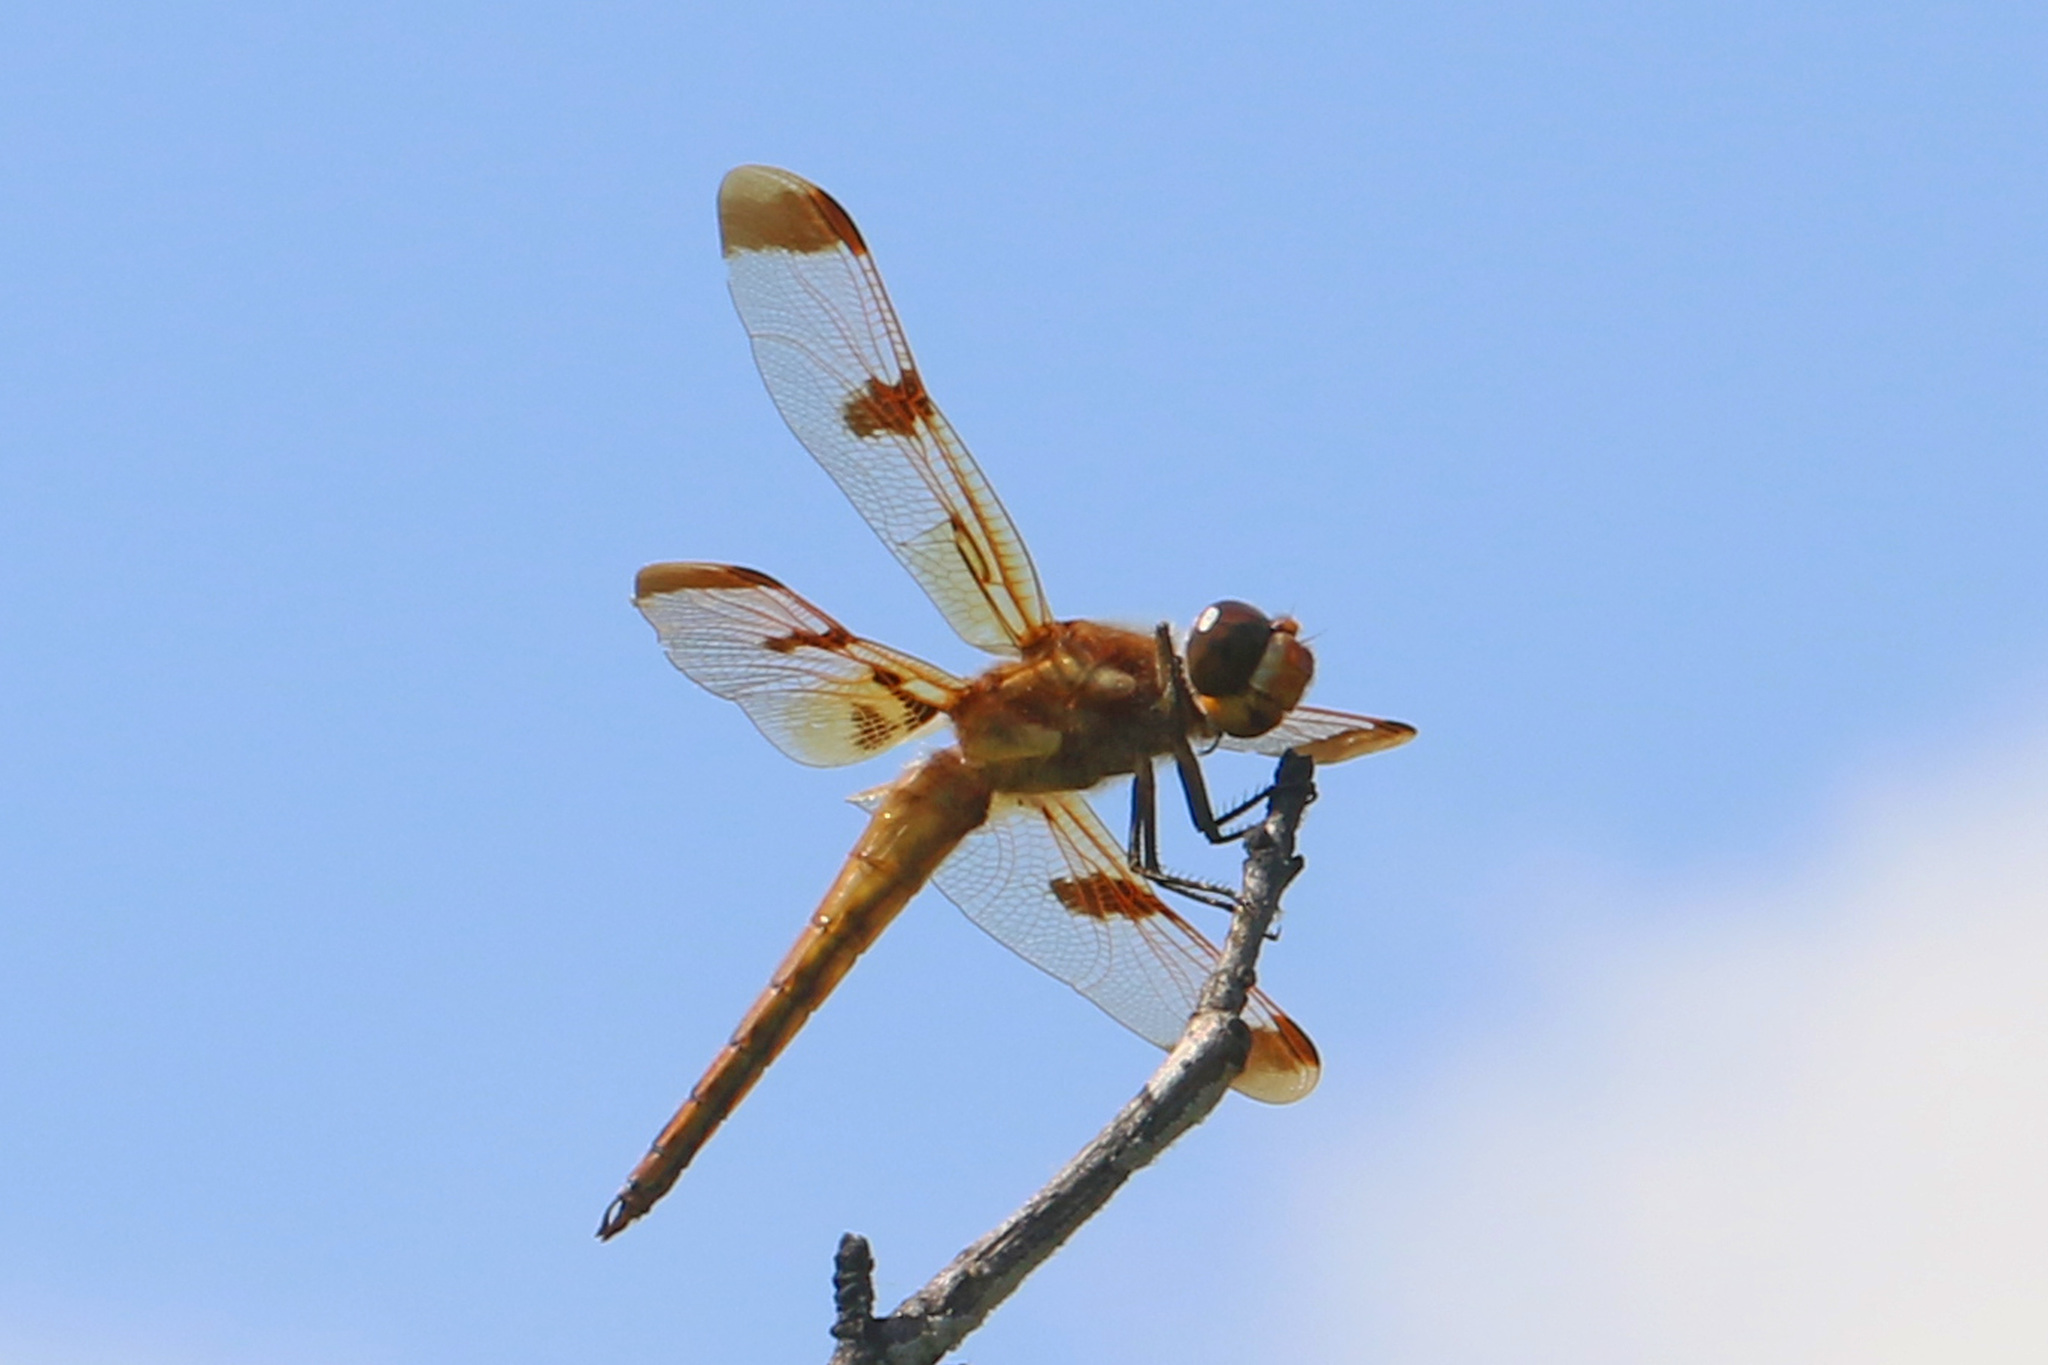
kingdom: Animalia
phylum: Arthropoda
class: Insecta
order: Odonata
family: Libellulidae
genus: Libellula
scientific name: Libellula semifasciata
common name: Painted skimmer
